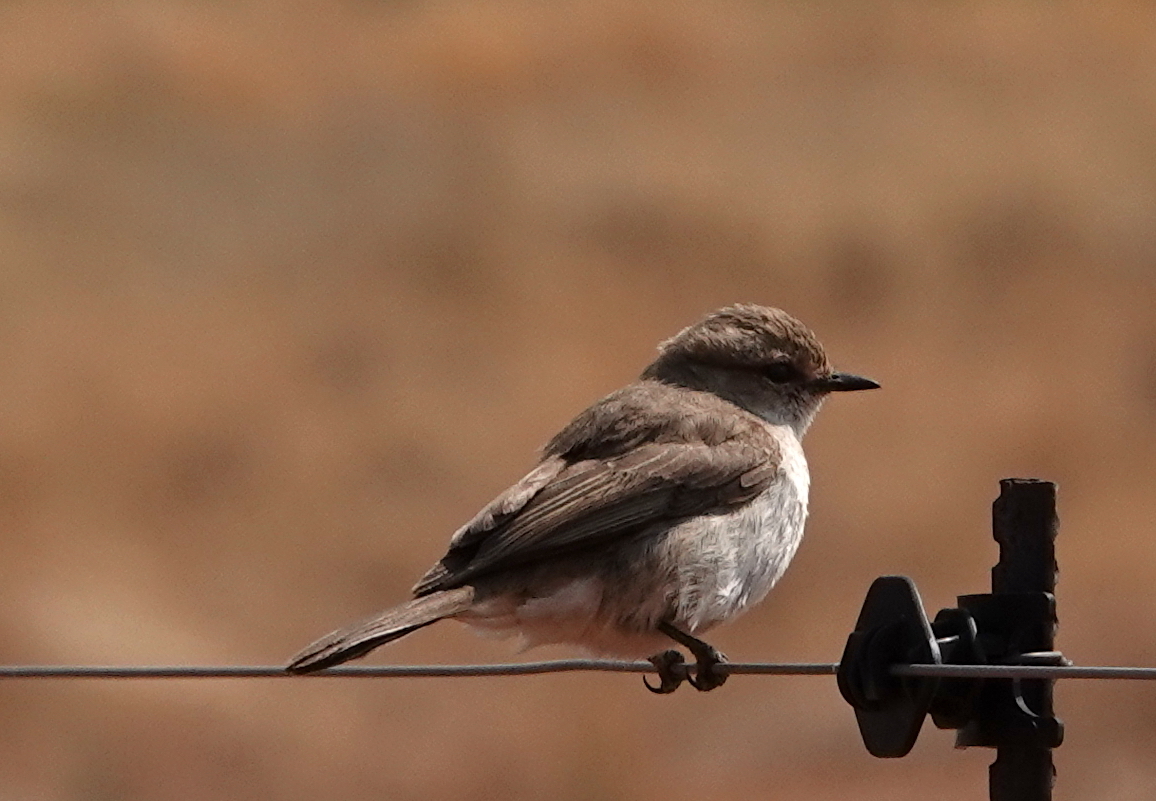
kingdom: Animalia
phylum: Chordata
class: Aves
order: Passeriformes
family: Muscicapidae
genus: Bradornis
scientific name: Bradornis mariquensis
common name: Marico flycatcher
